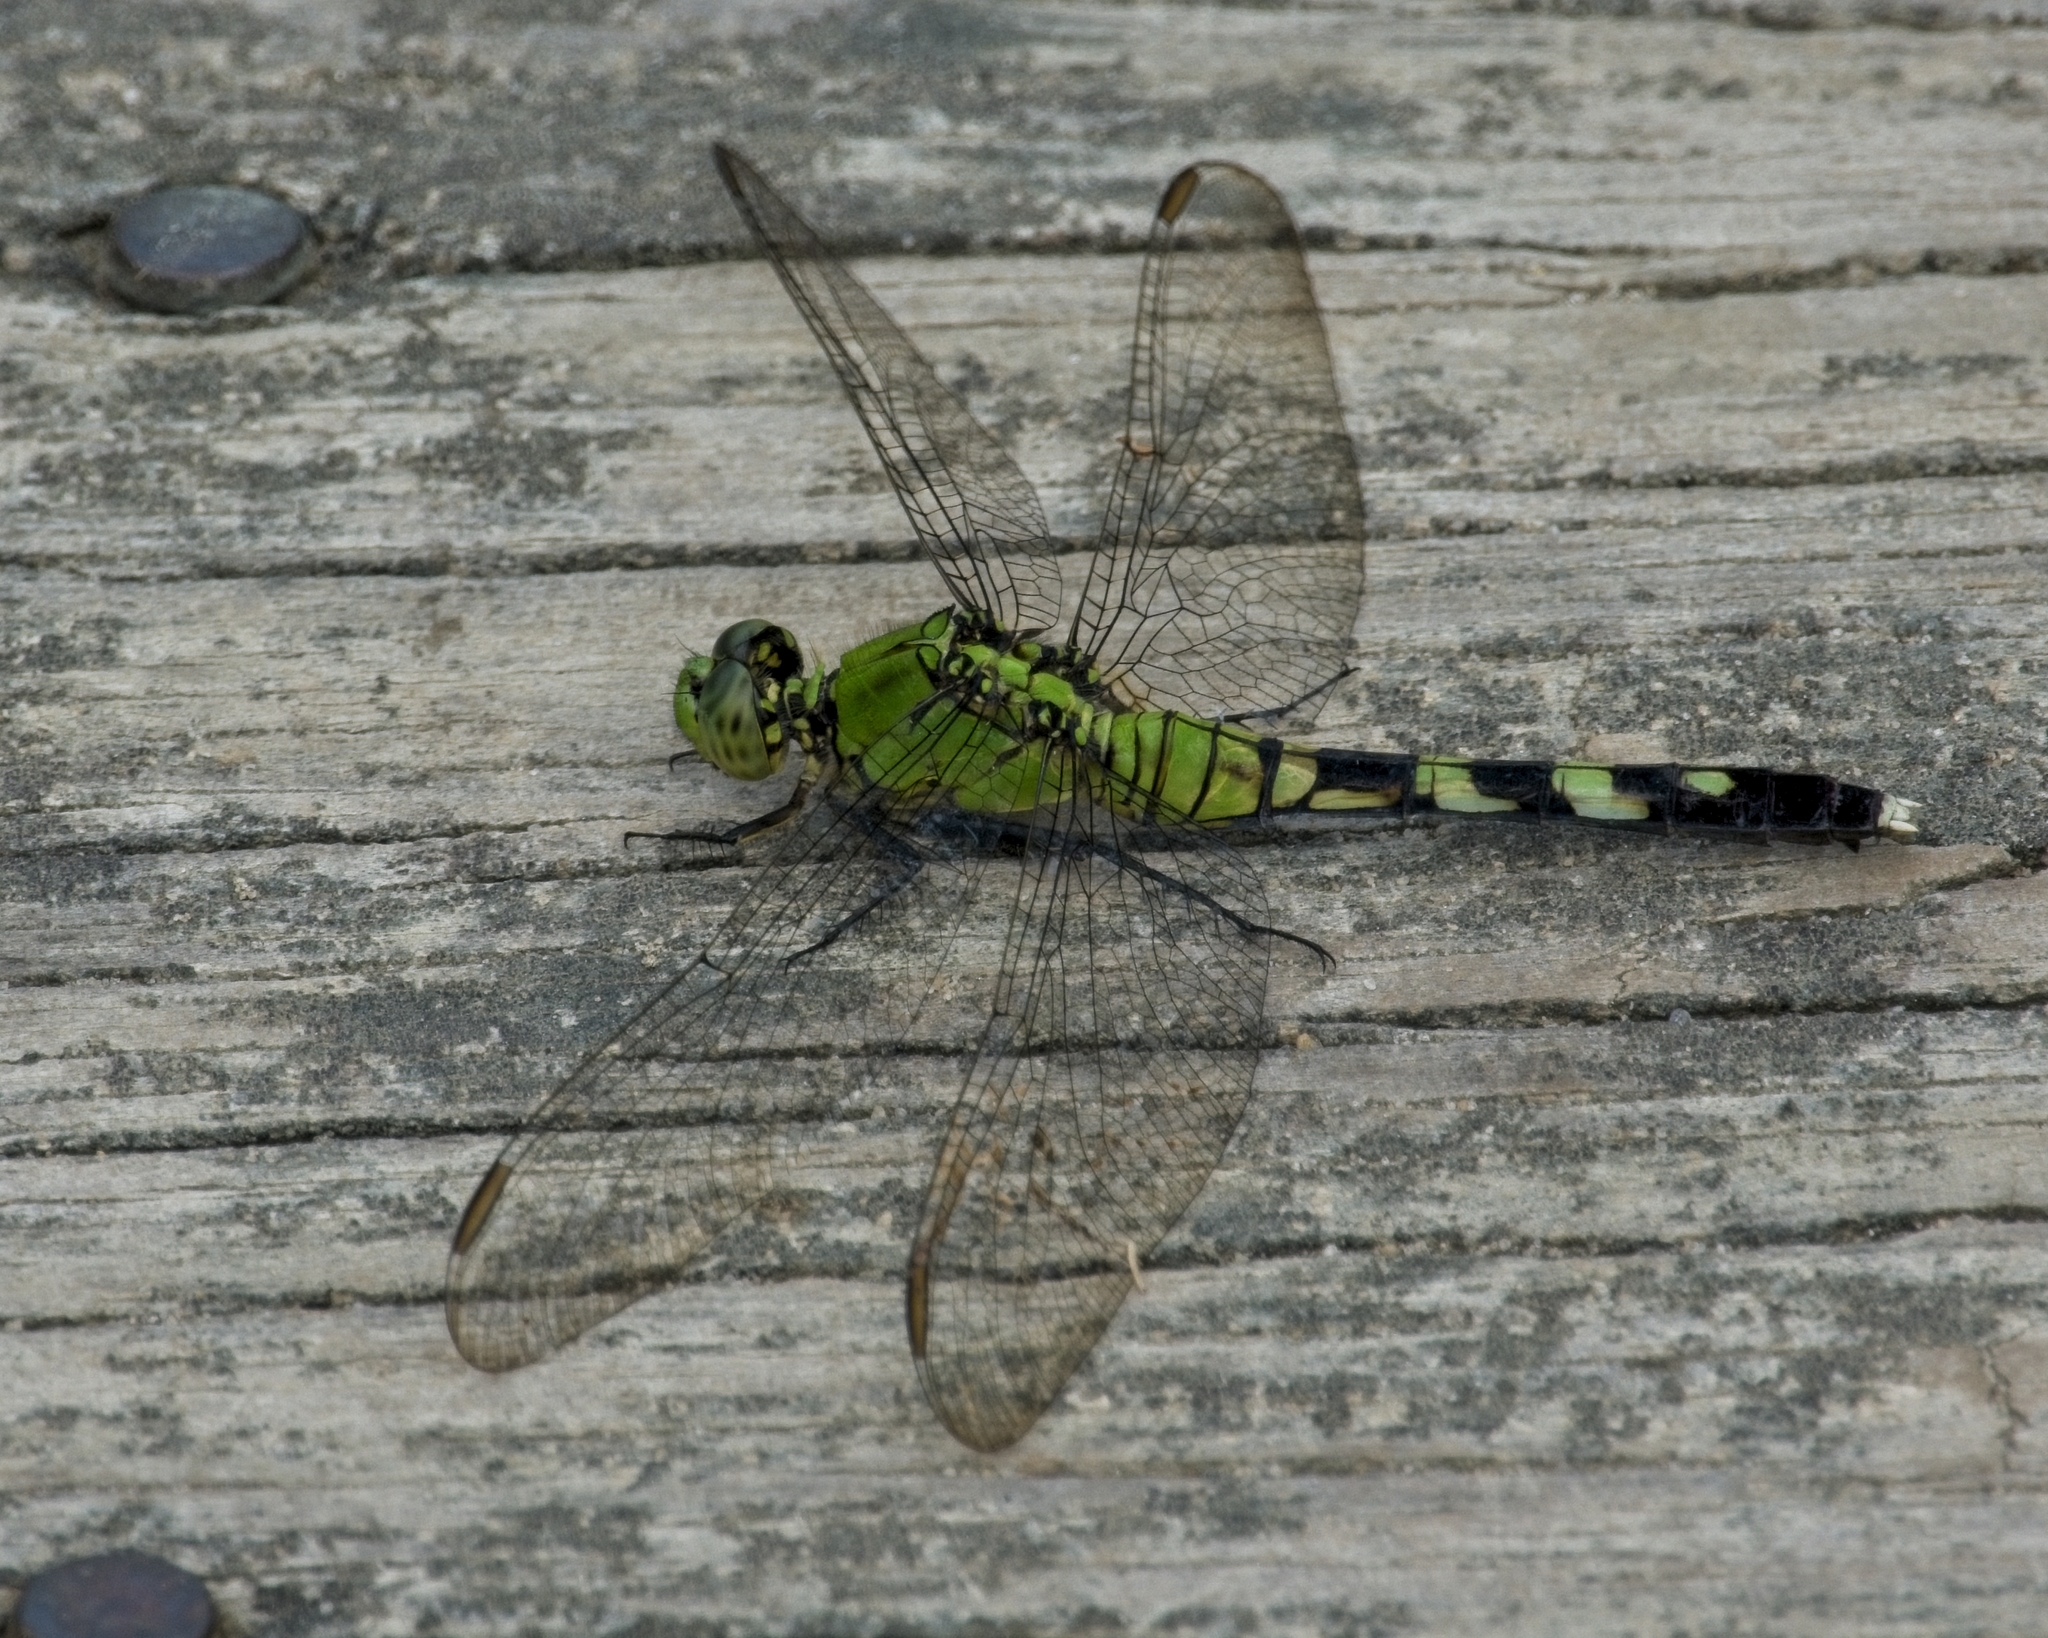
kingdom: Animalia
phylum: Arthropoda
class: Insecta
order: Odonata
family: Libellulidae
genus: Erythemis
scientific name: Erythemis simplicicollis
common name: Eastern pondhawk
